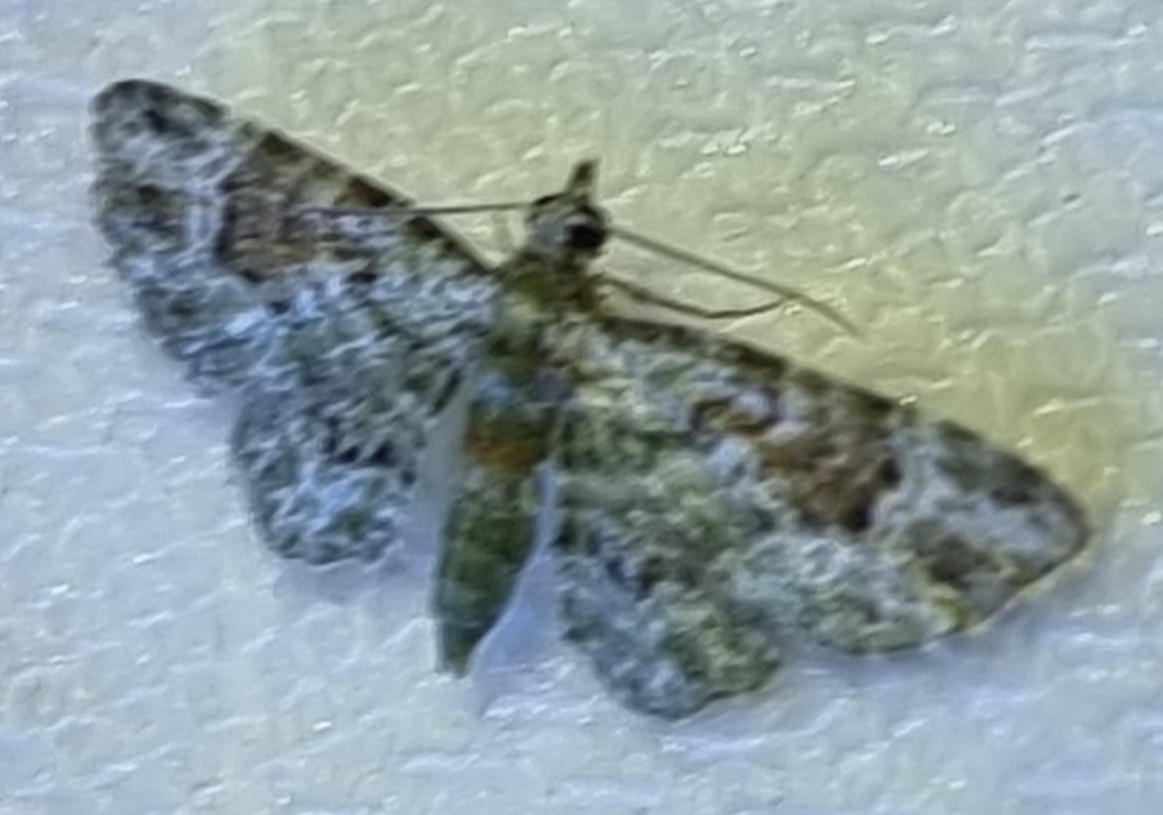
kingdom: Animalia
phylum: Arthropoda
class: Insecta
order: Lepidoptera
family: Geometridae
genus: Calluga
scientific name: Calluga costalis
